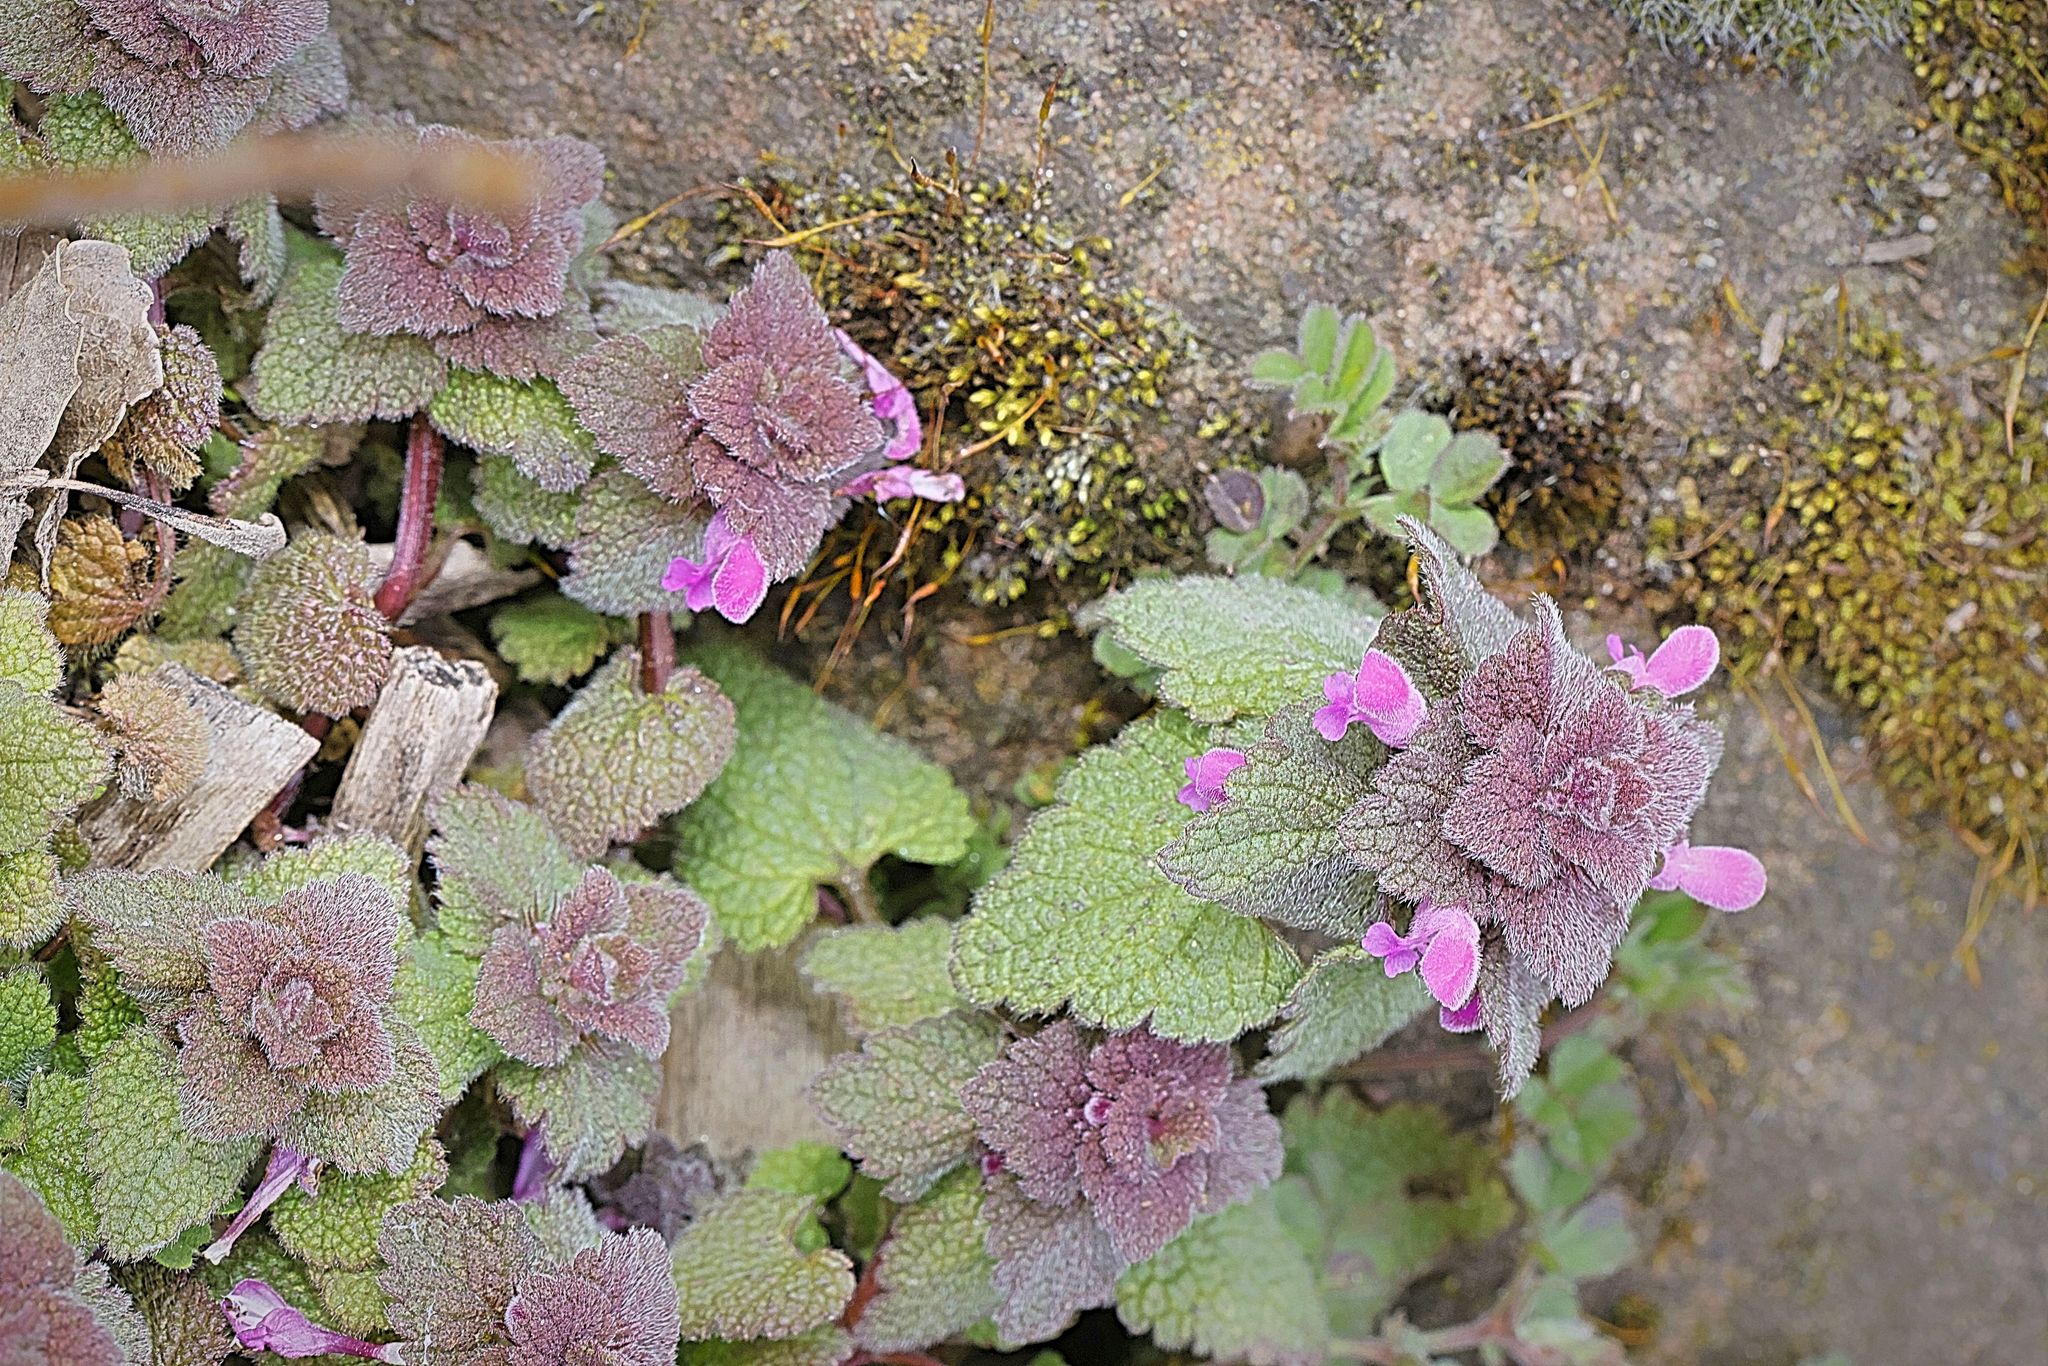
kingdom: Plantae
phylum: Tracheophyta
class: Magnoliopsida
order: Lamiales
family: Lamiaceae
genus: Lamium
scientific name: Lamium purpureum
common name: Red dead-nettle
